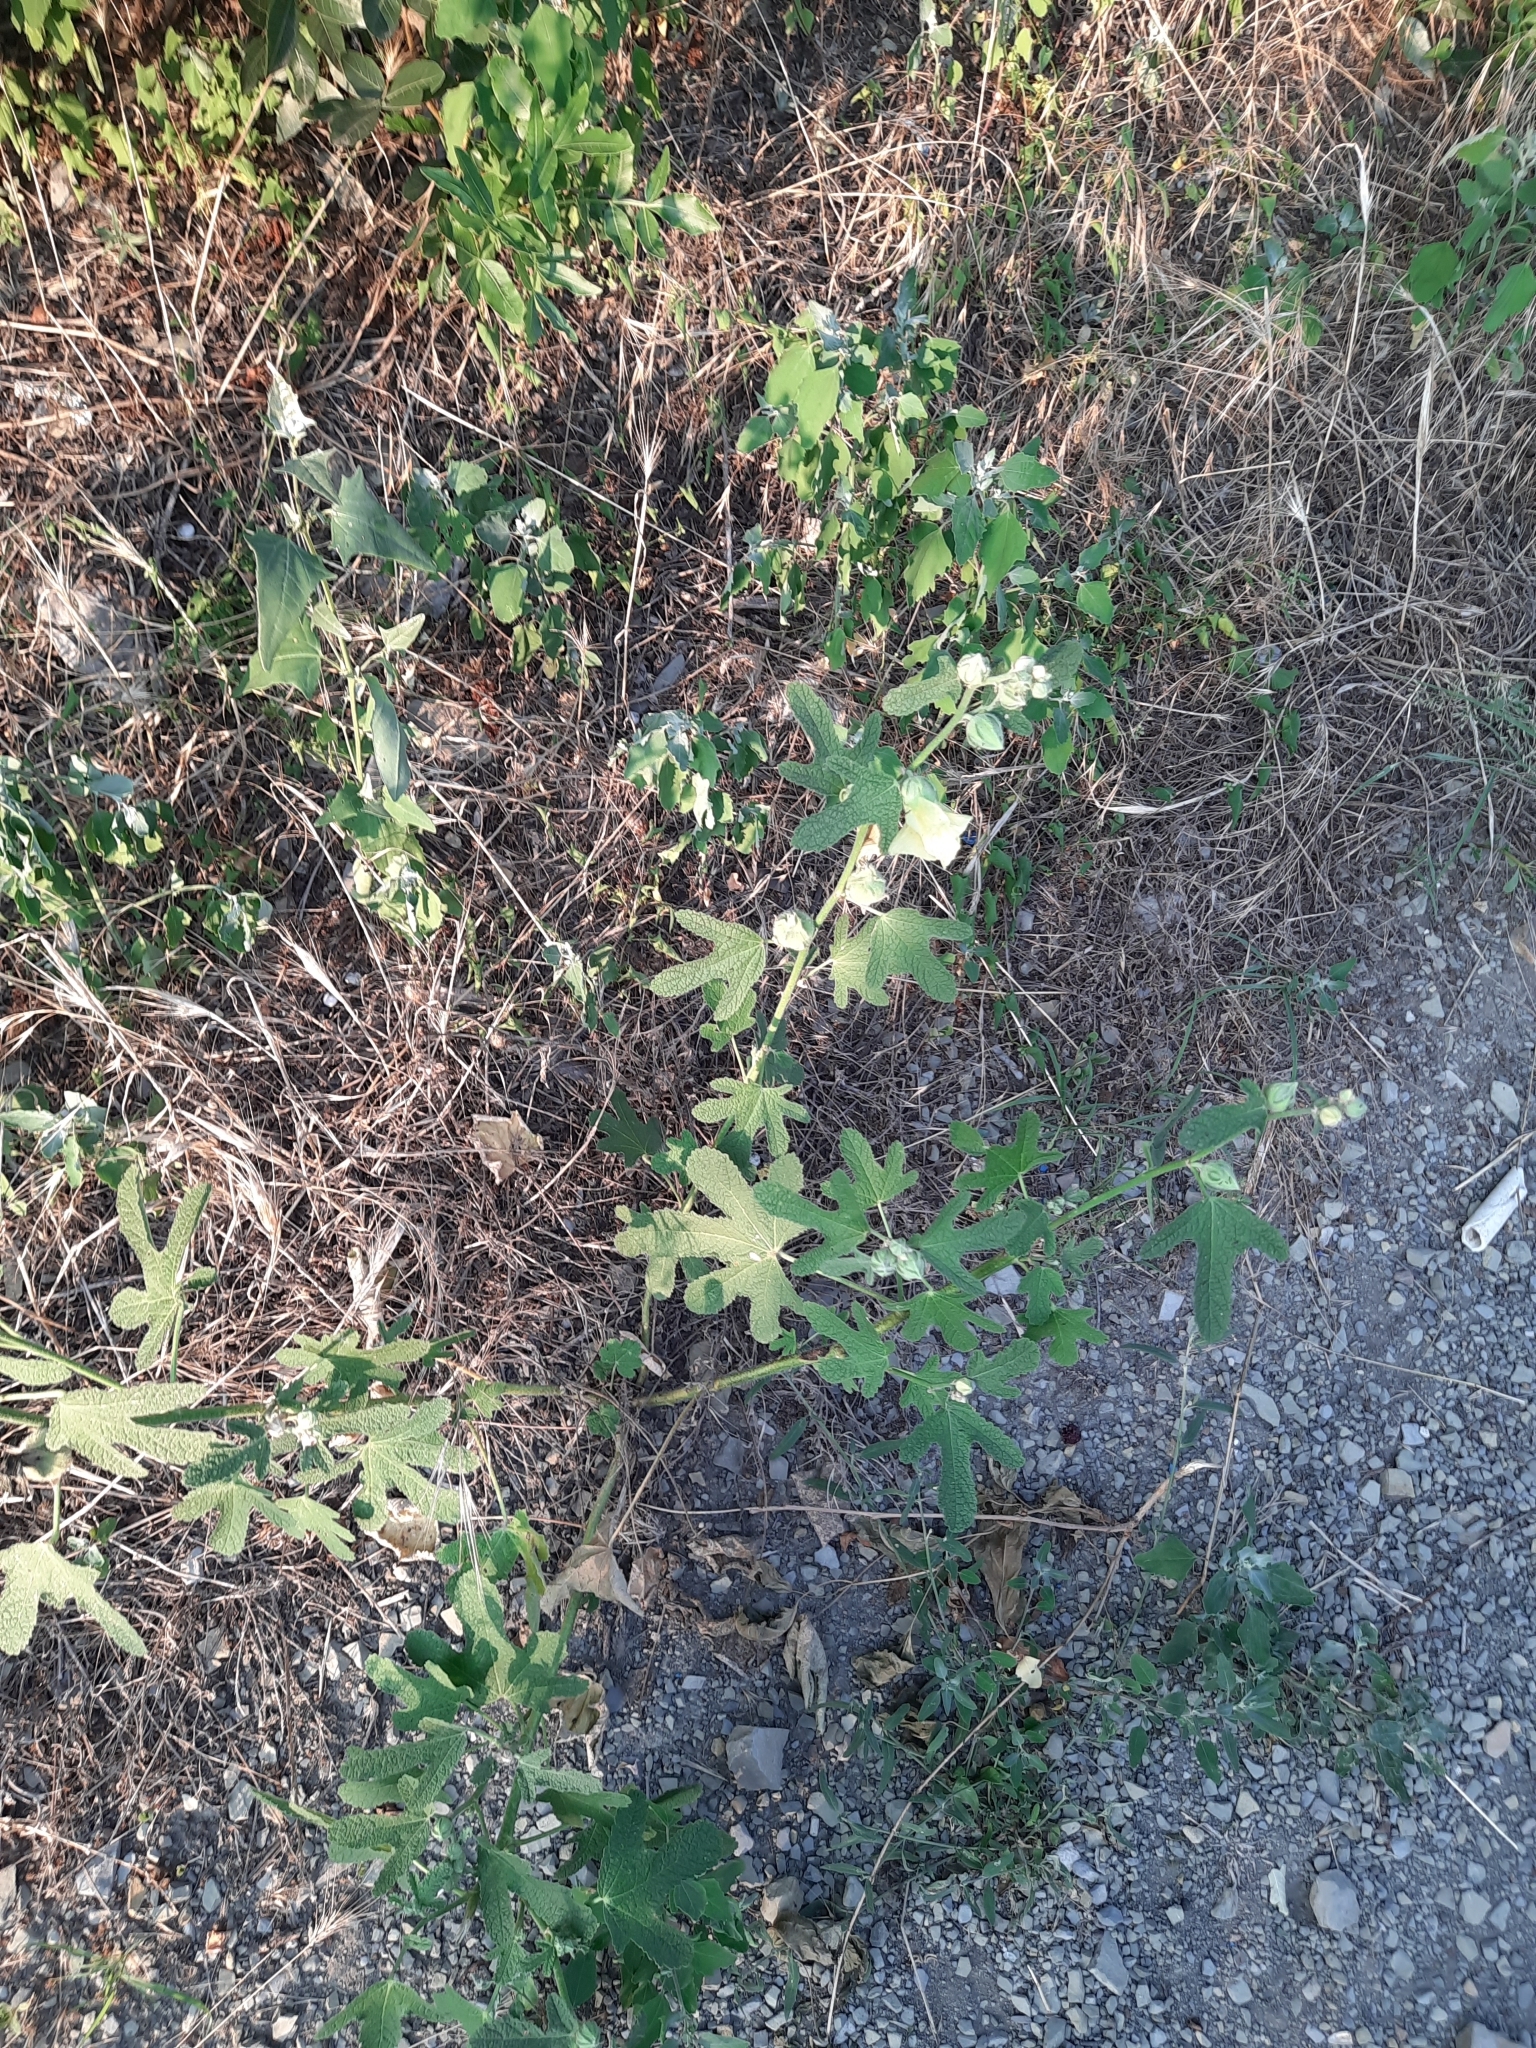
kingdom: Plantae
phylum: Tracheophyta
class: Magnoliopsida
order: Malvales
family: Malvaceae
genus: Alcea
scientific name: Alcea rugosa
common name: Russian hollyhock
